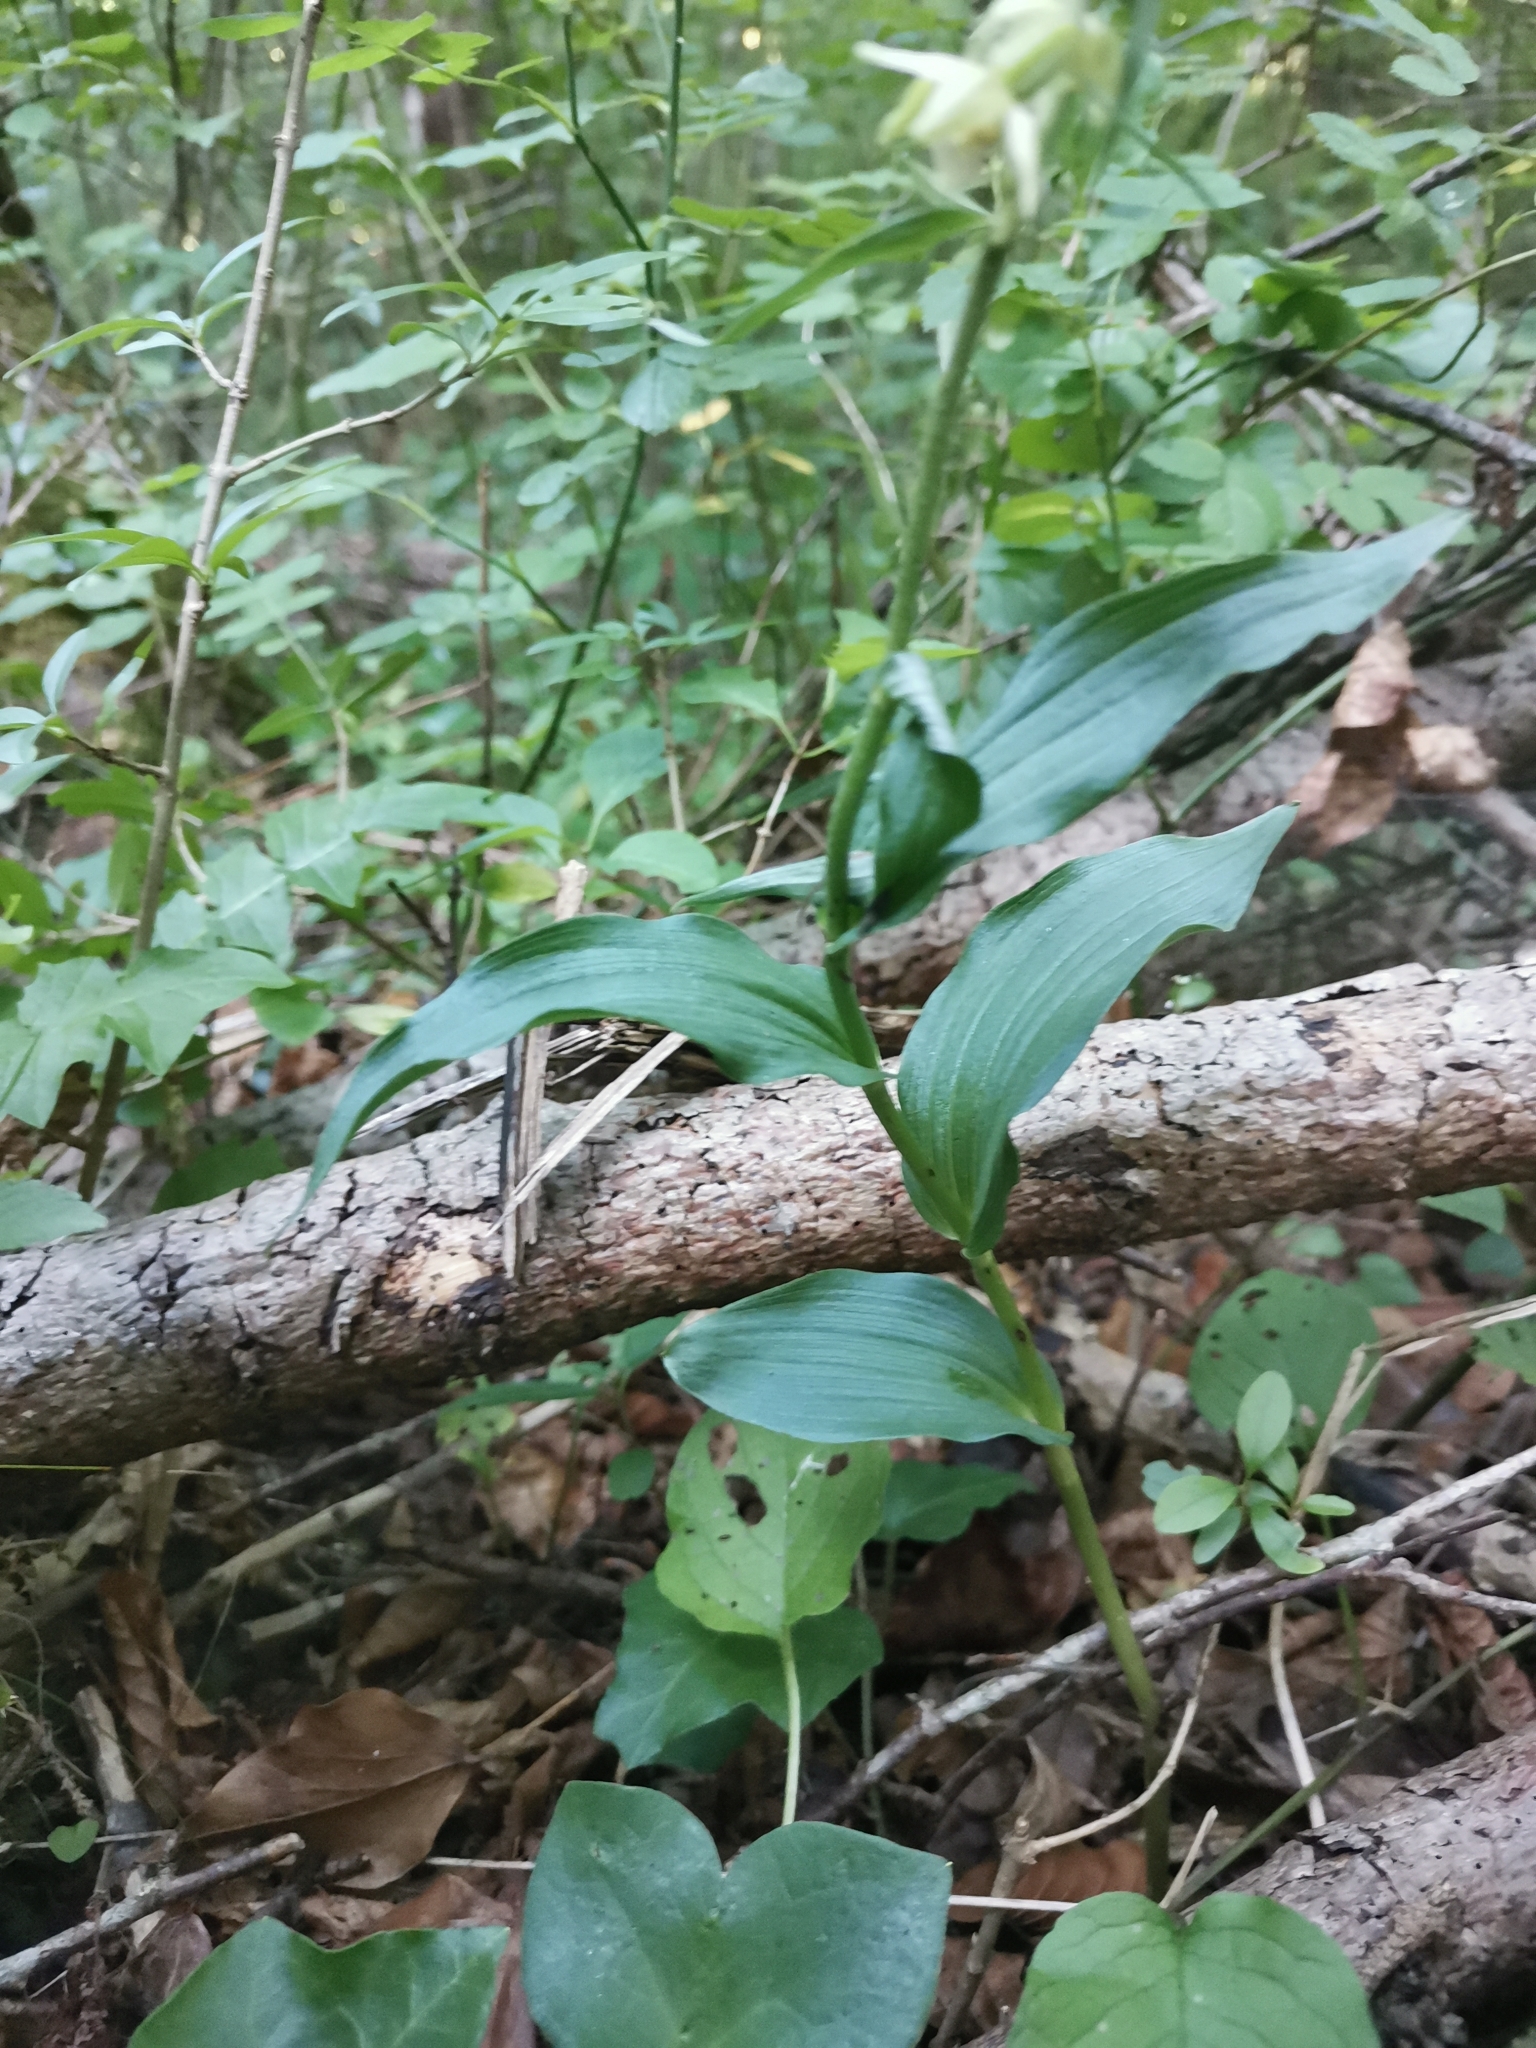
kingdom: Plantae
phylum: Tracheophyta
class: Liliopsida
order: Asparagales
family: Orchidaceae
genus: Epipactis
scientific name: Epipactis muelleri
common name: Mueller's epipactis
